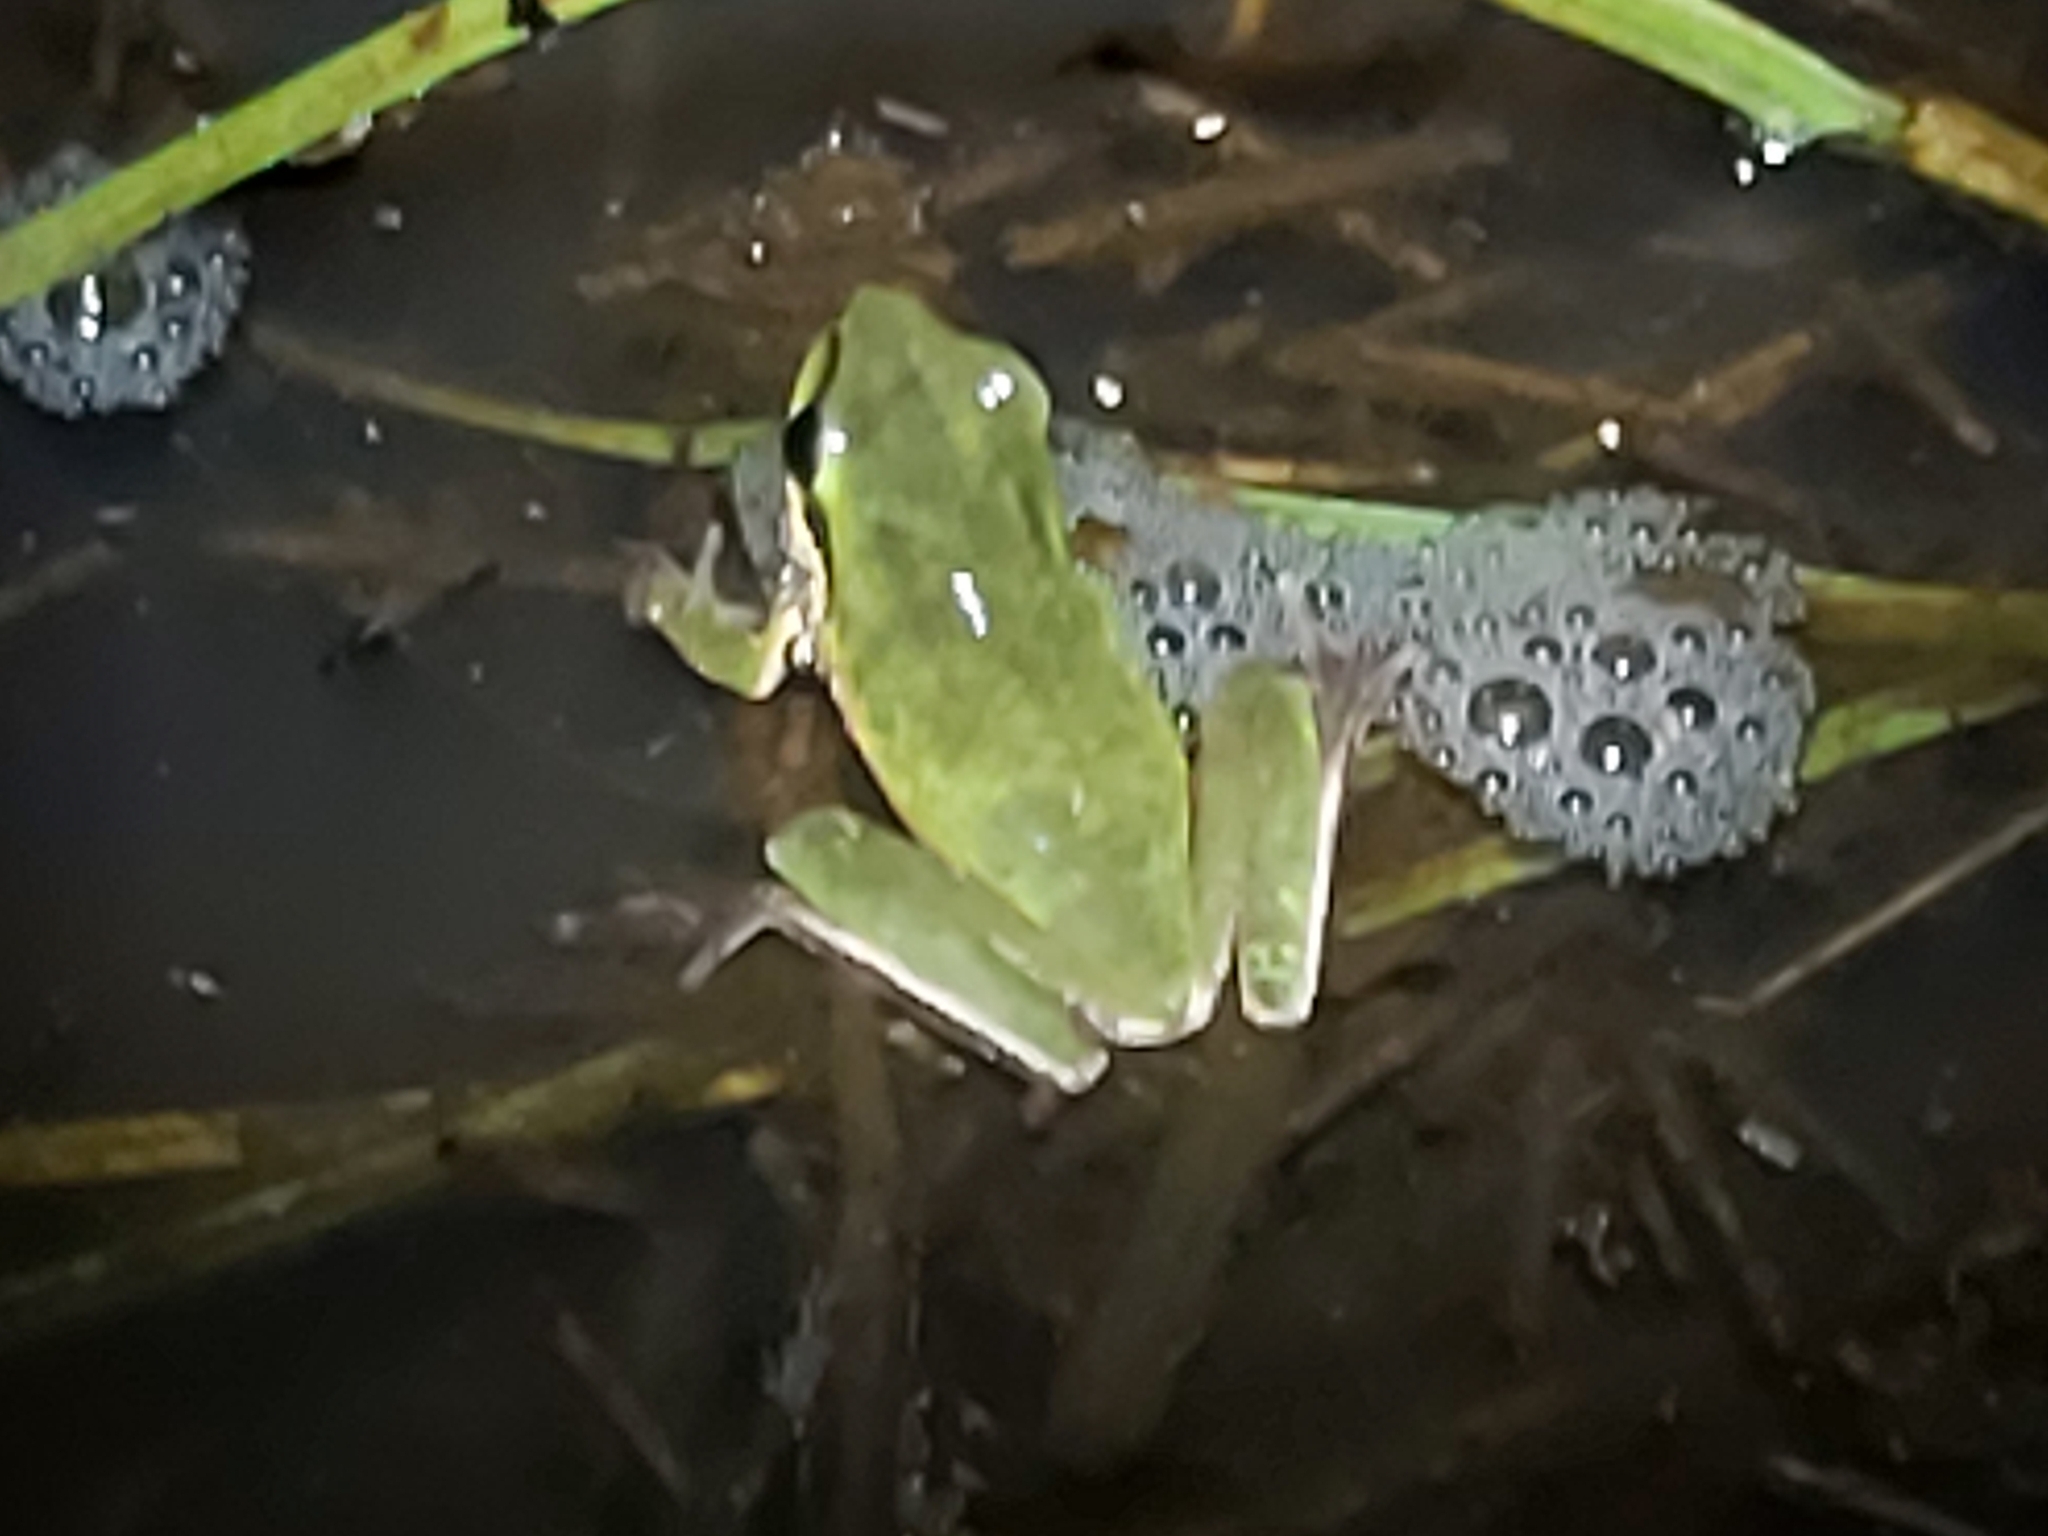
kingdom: Animalia
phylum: Chordata
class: Amphibia
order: Anura
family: Pelodryadidae
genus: Litoria
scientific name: Litoria fallax
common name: Eastern dwarf treefrog
